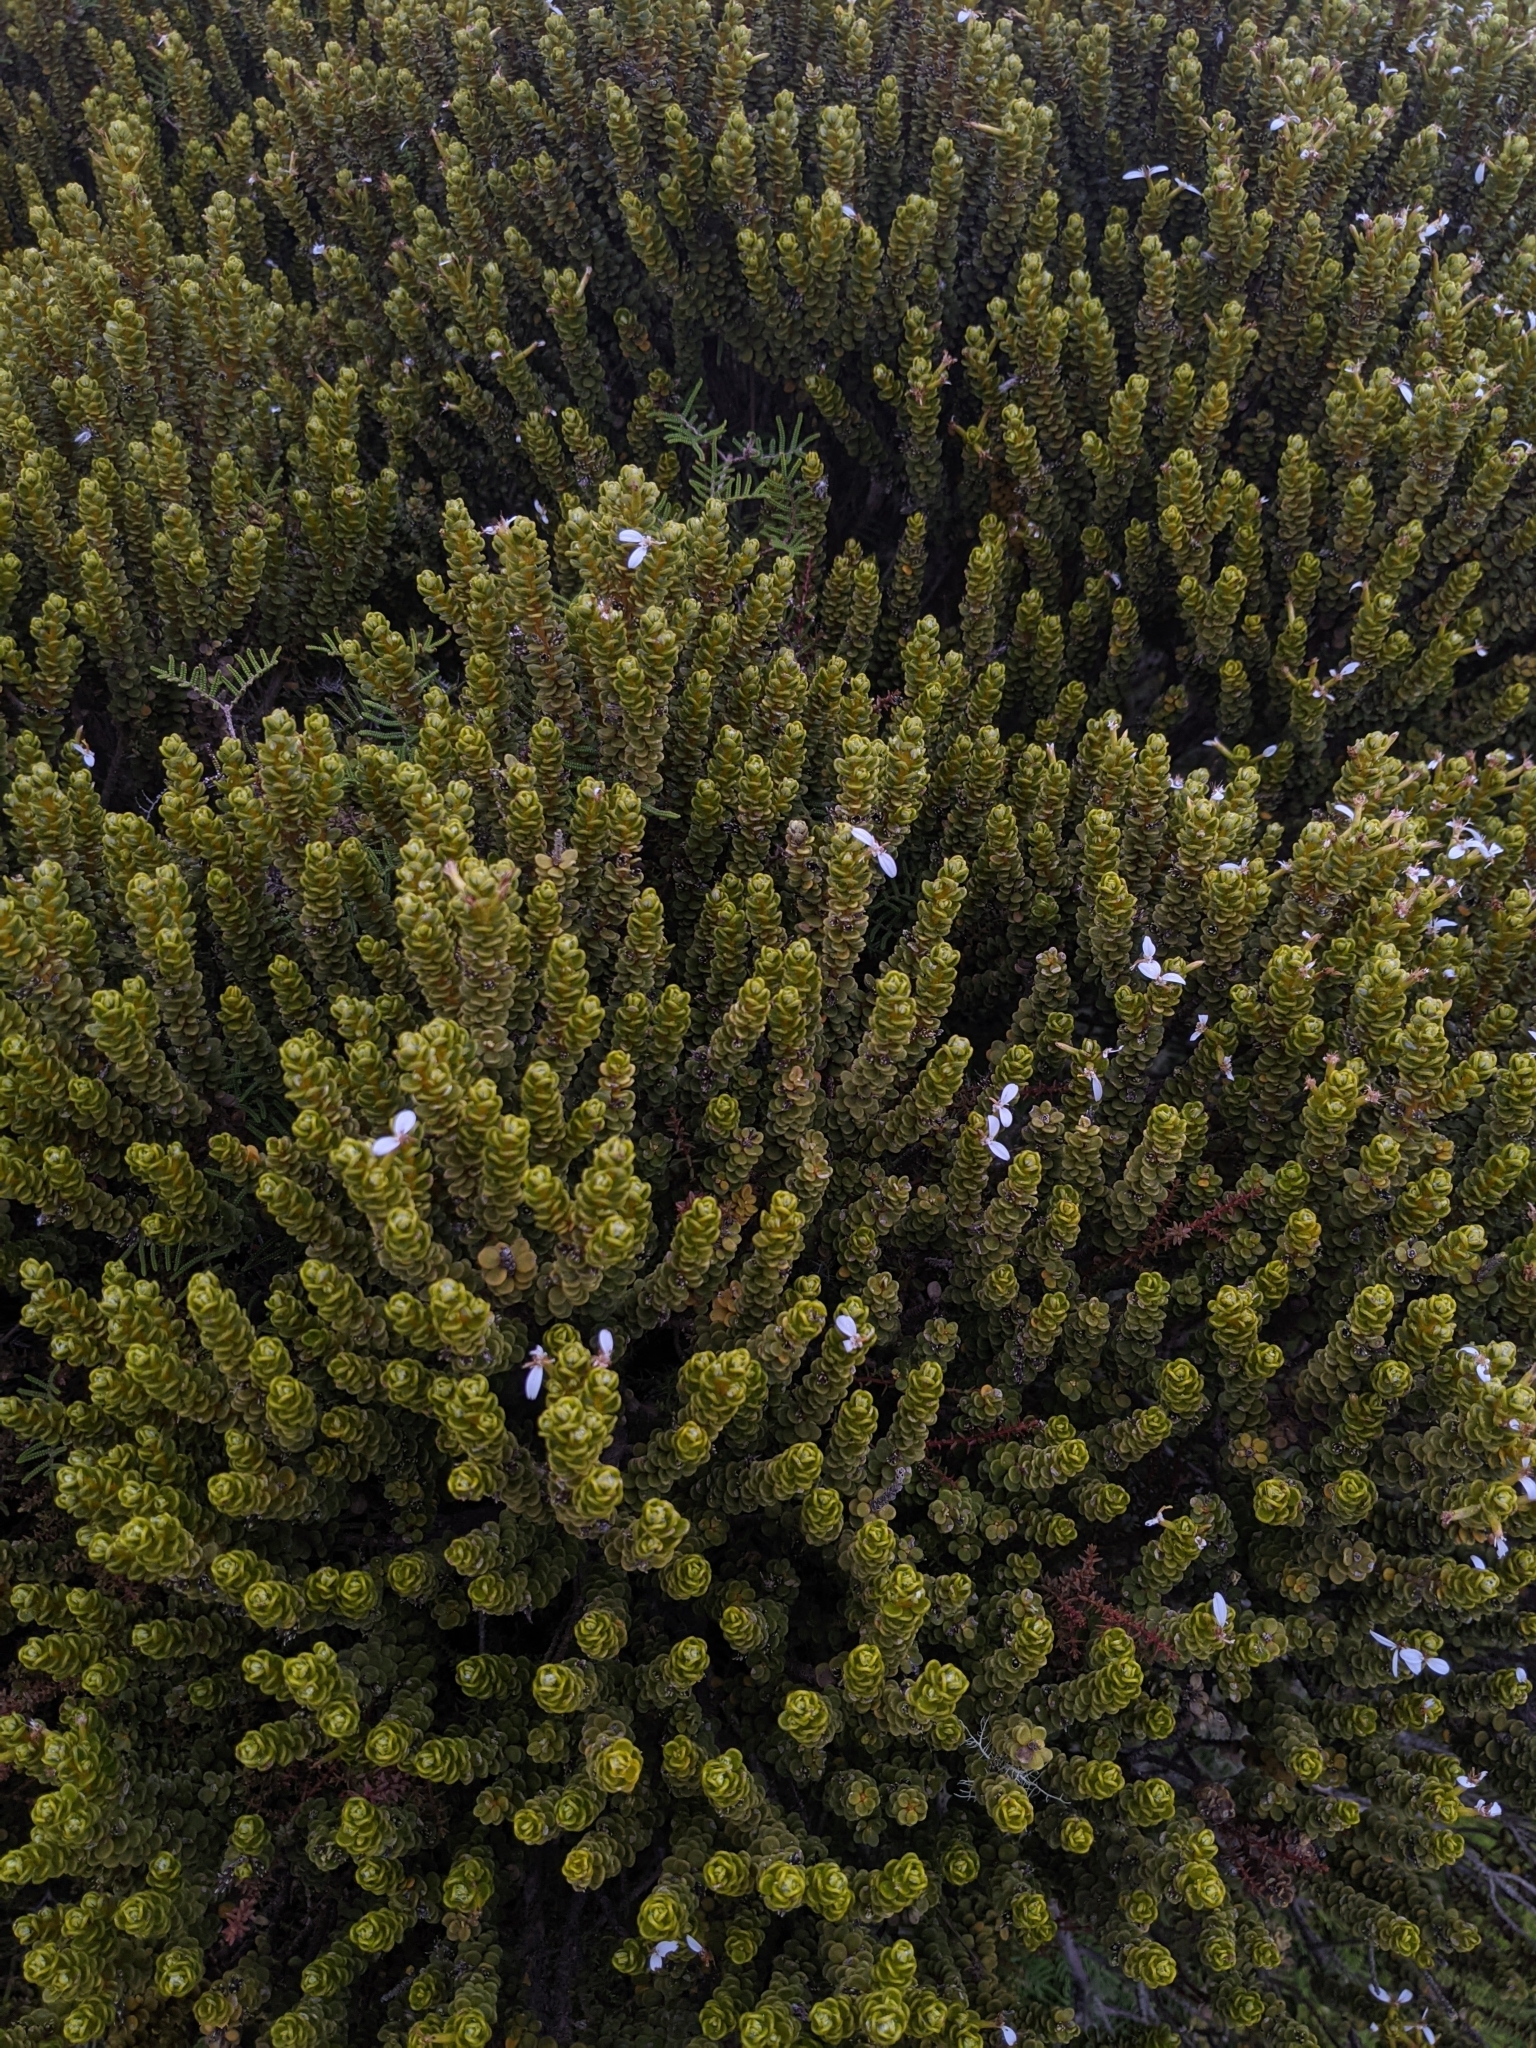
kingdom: Plantae
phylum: Tracheophyta
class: Magnoliopsida
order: Asterales
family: Asteraceae
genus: Olearia
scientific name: Olearia nummularifolia
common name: Sticky daisybush
